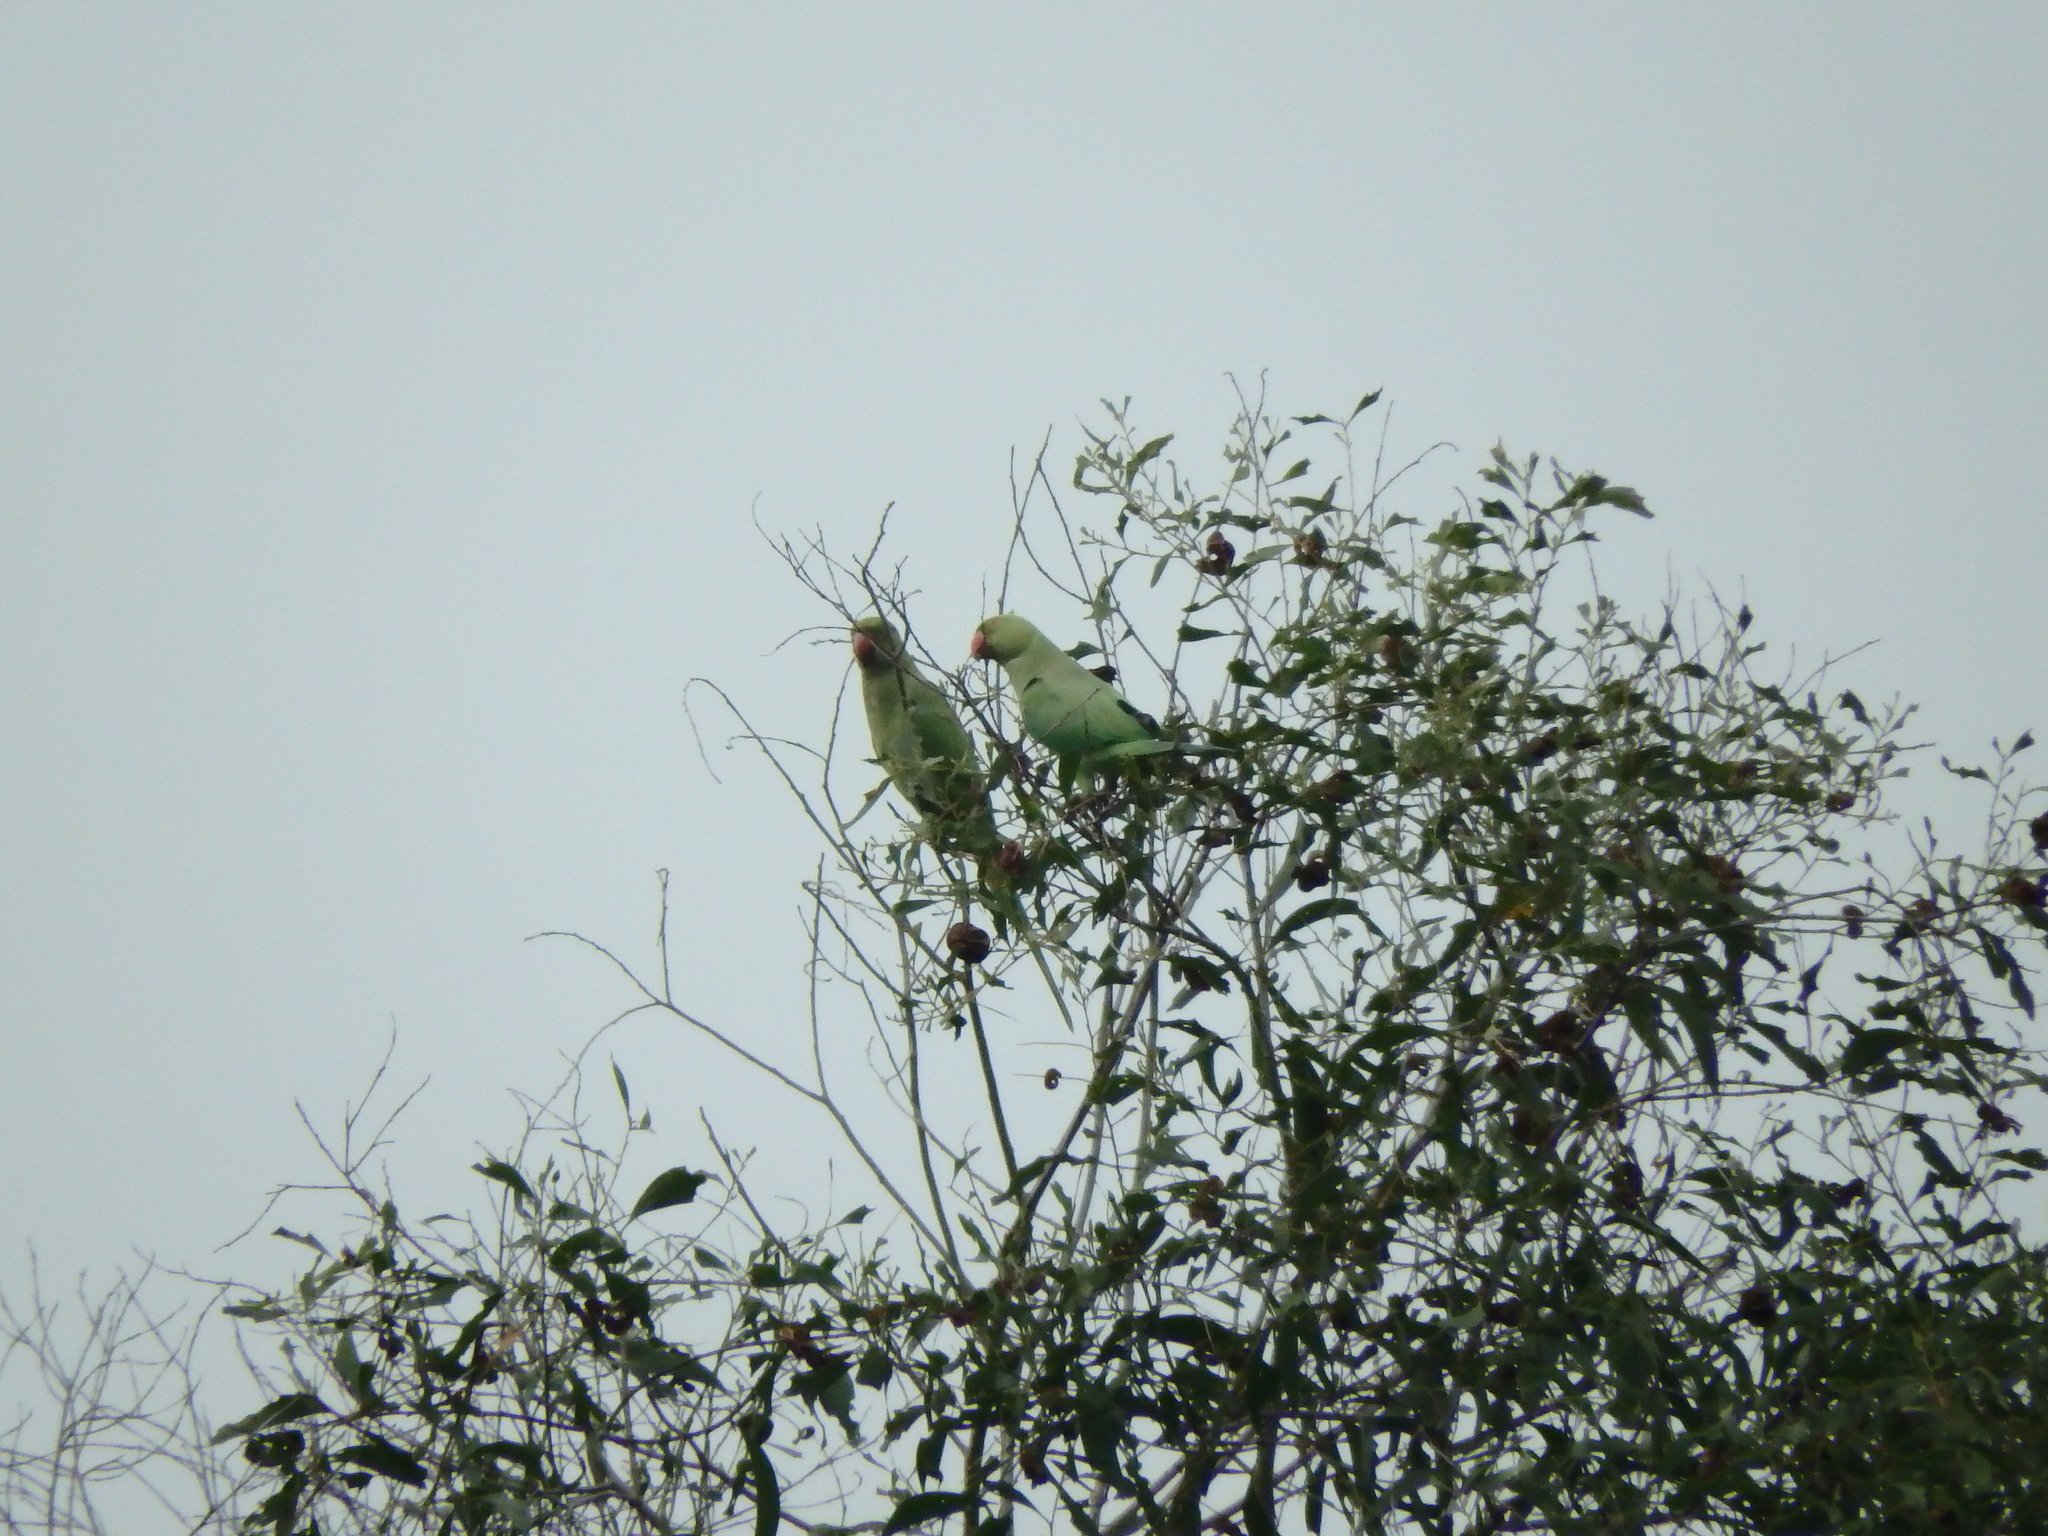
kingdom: Animalia
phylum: Chordata
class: Aves
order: Psittaciformes
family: Psittacidae
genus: Psittacula
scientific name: Psittacula krameri
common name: Rose-ringed parakeet
